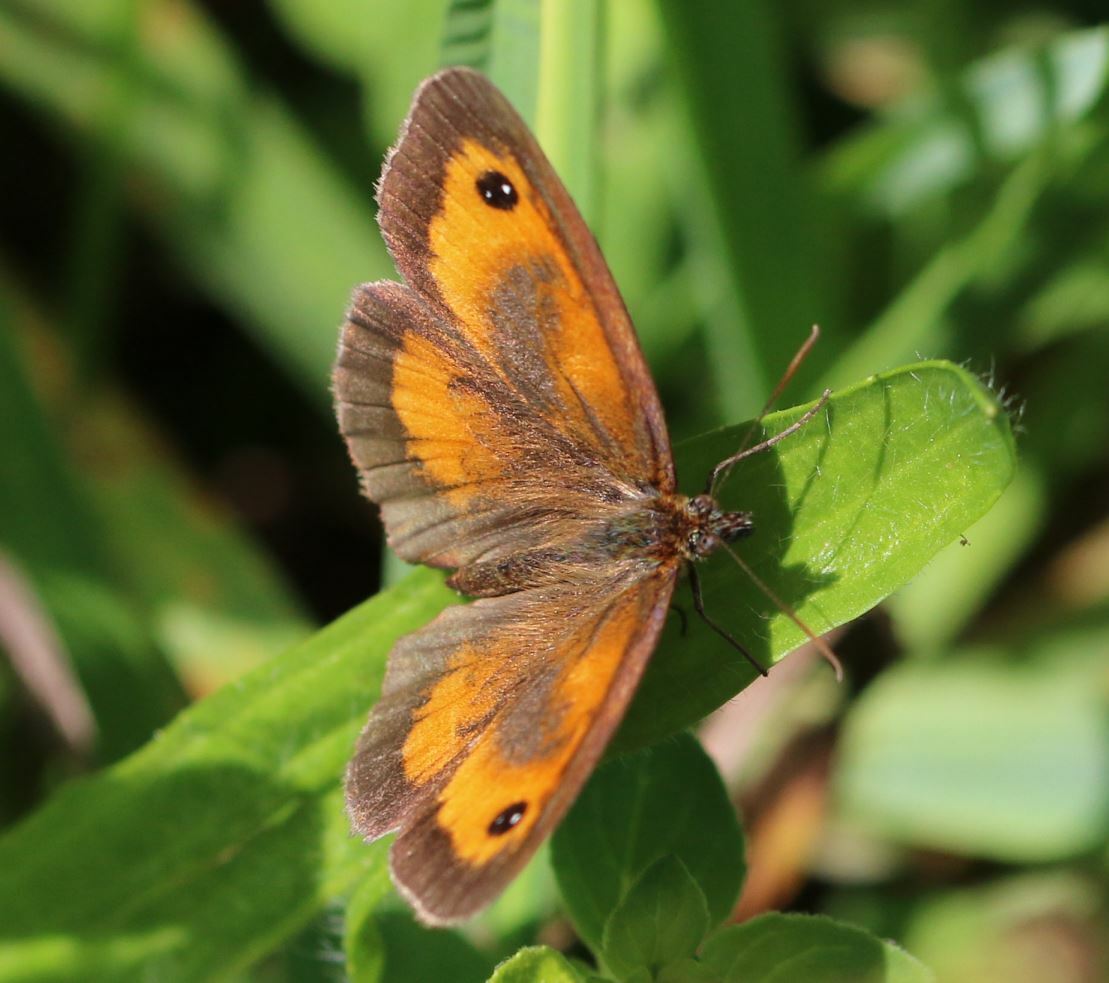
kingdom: Animalia
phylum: Arthropoda
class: Insecta
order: Lepidoptera
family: Nymphalidae
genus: Pyronia
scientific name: Pyronia tithonus
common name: Gatekeeper
